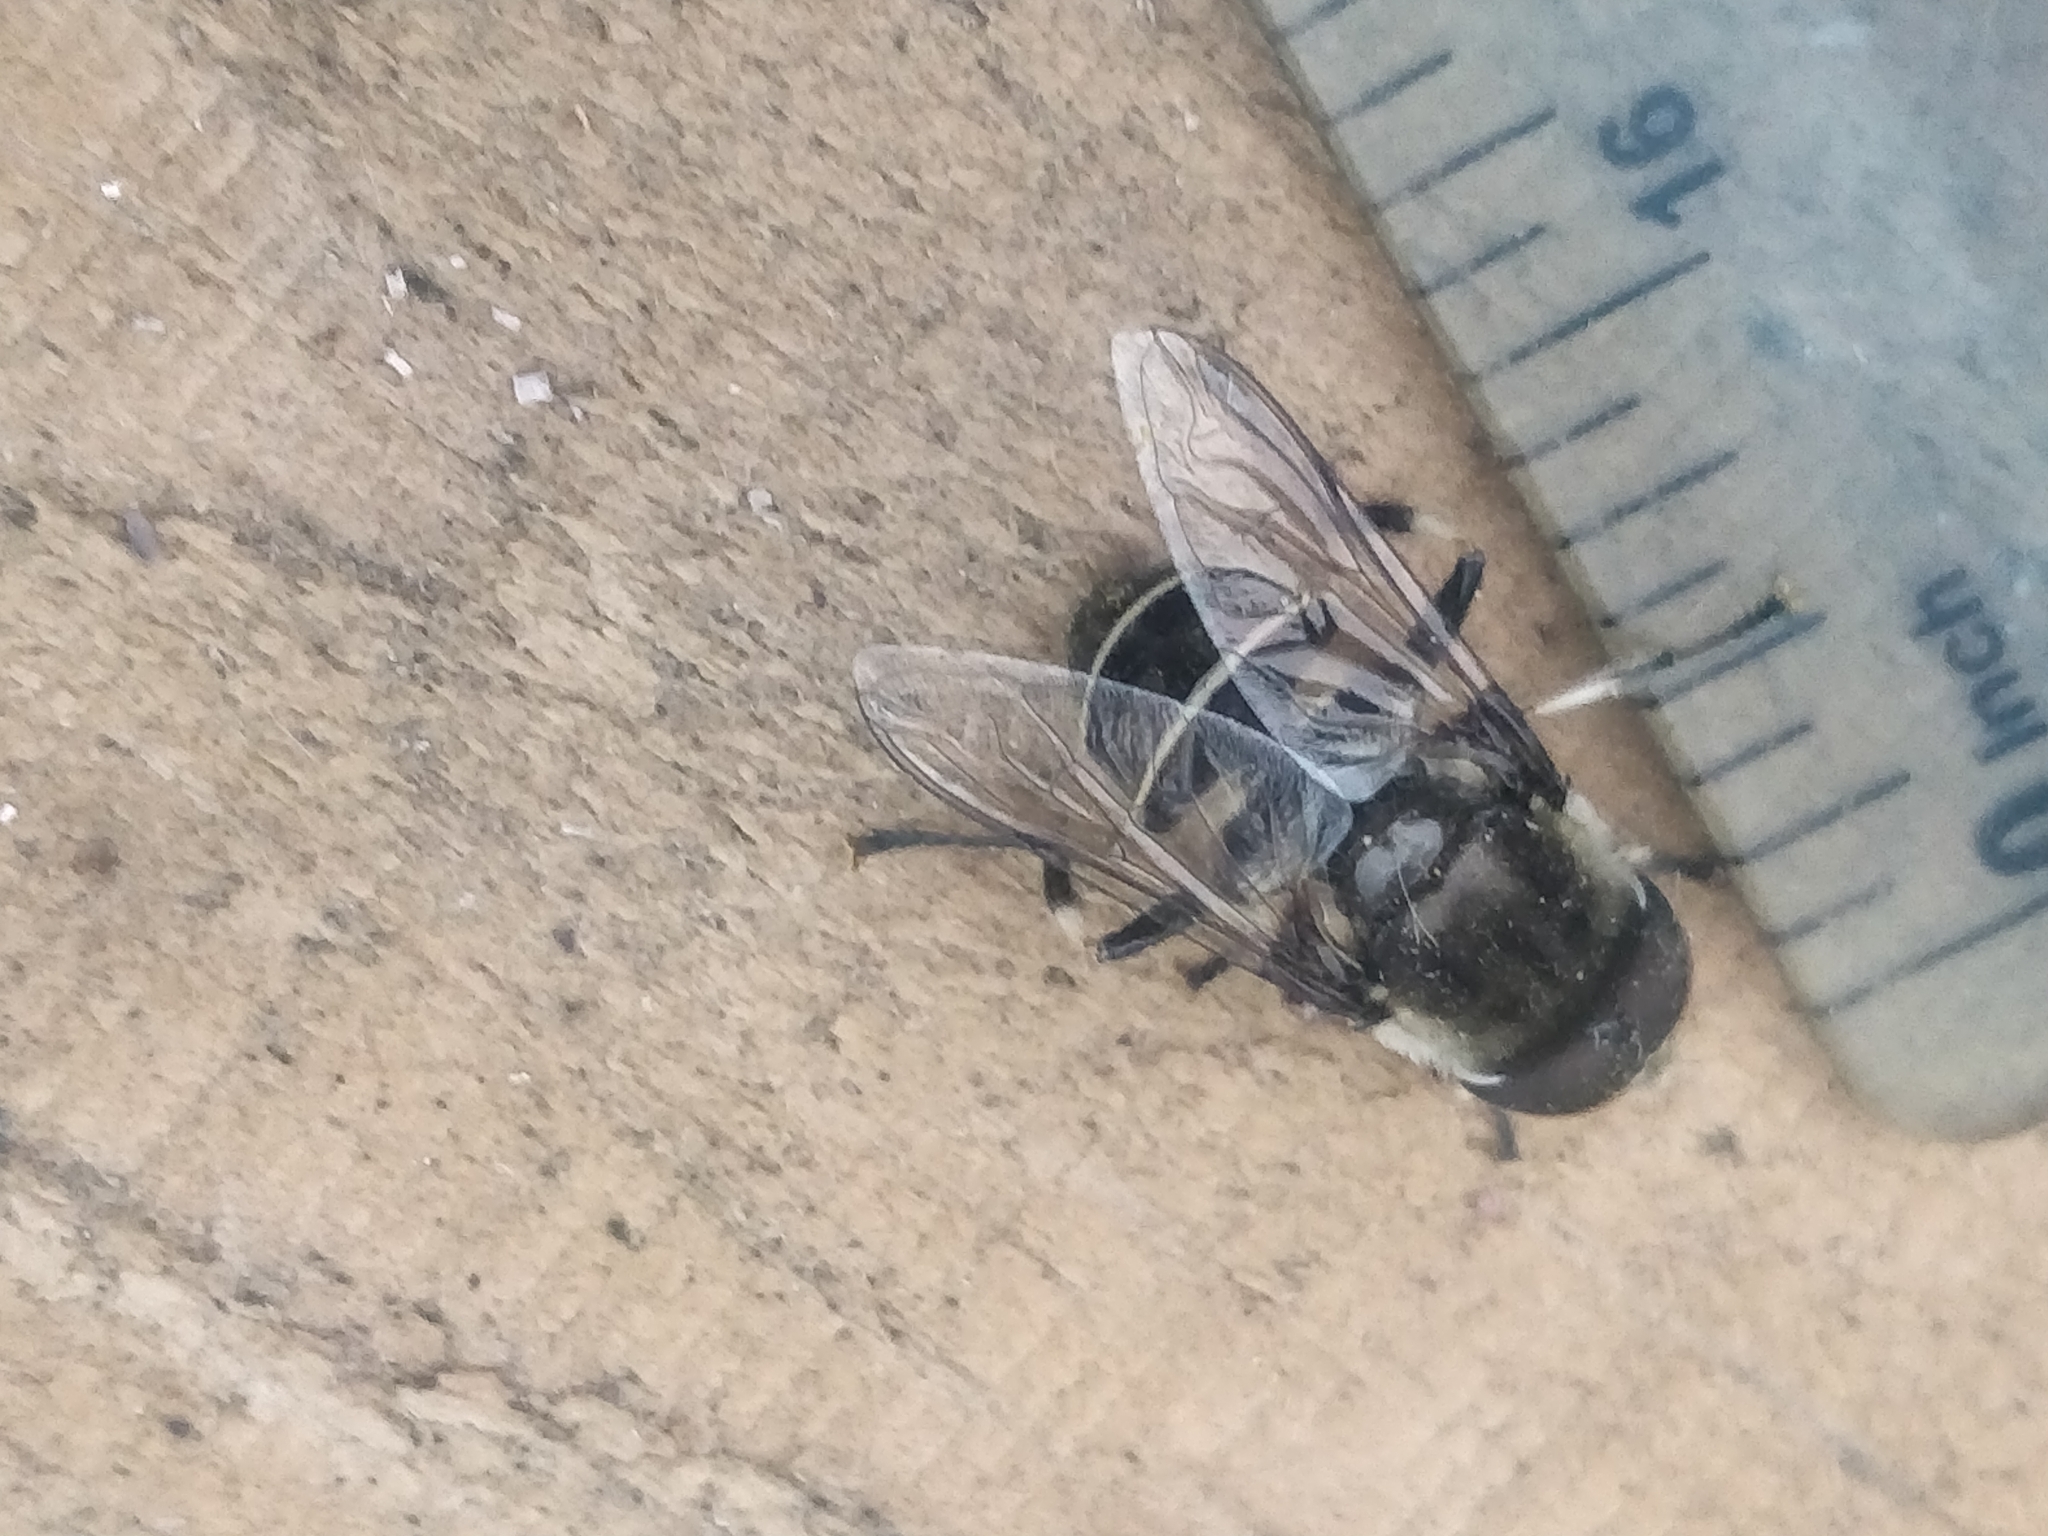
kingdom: Animalia
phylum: Arthropoda
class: Insecta
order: Diptera
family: Syrphidae
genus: Eristalis
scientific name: Eristalis dimidiata
